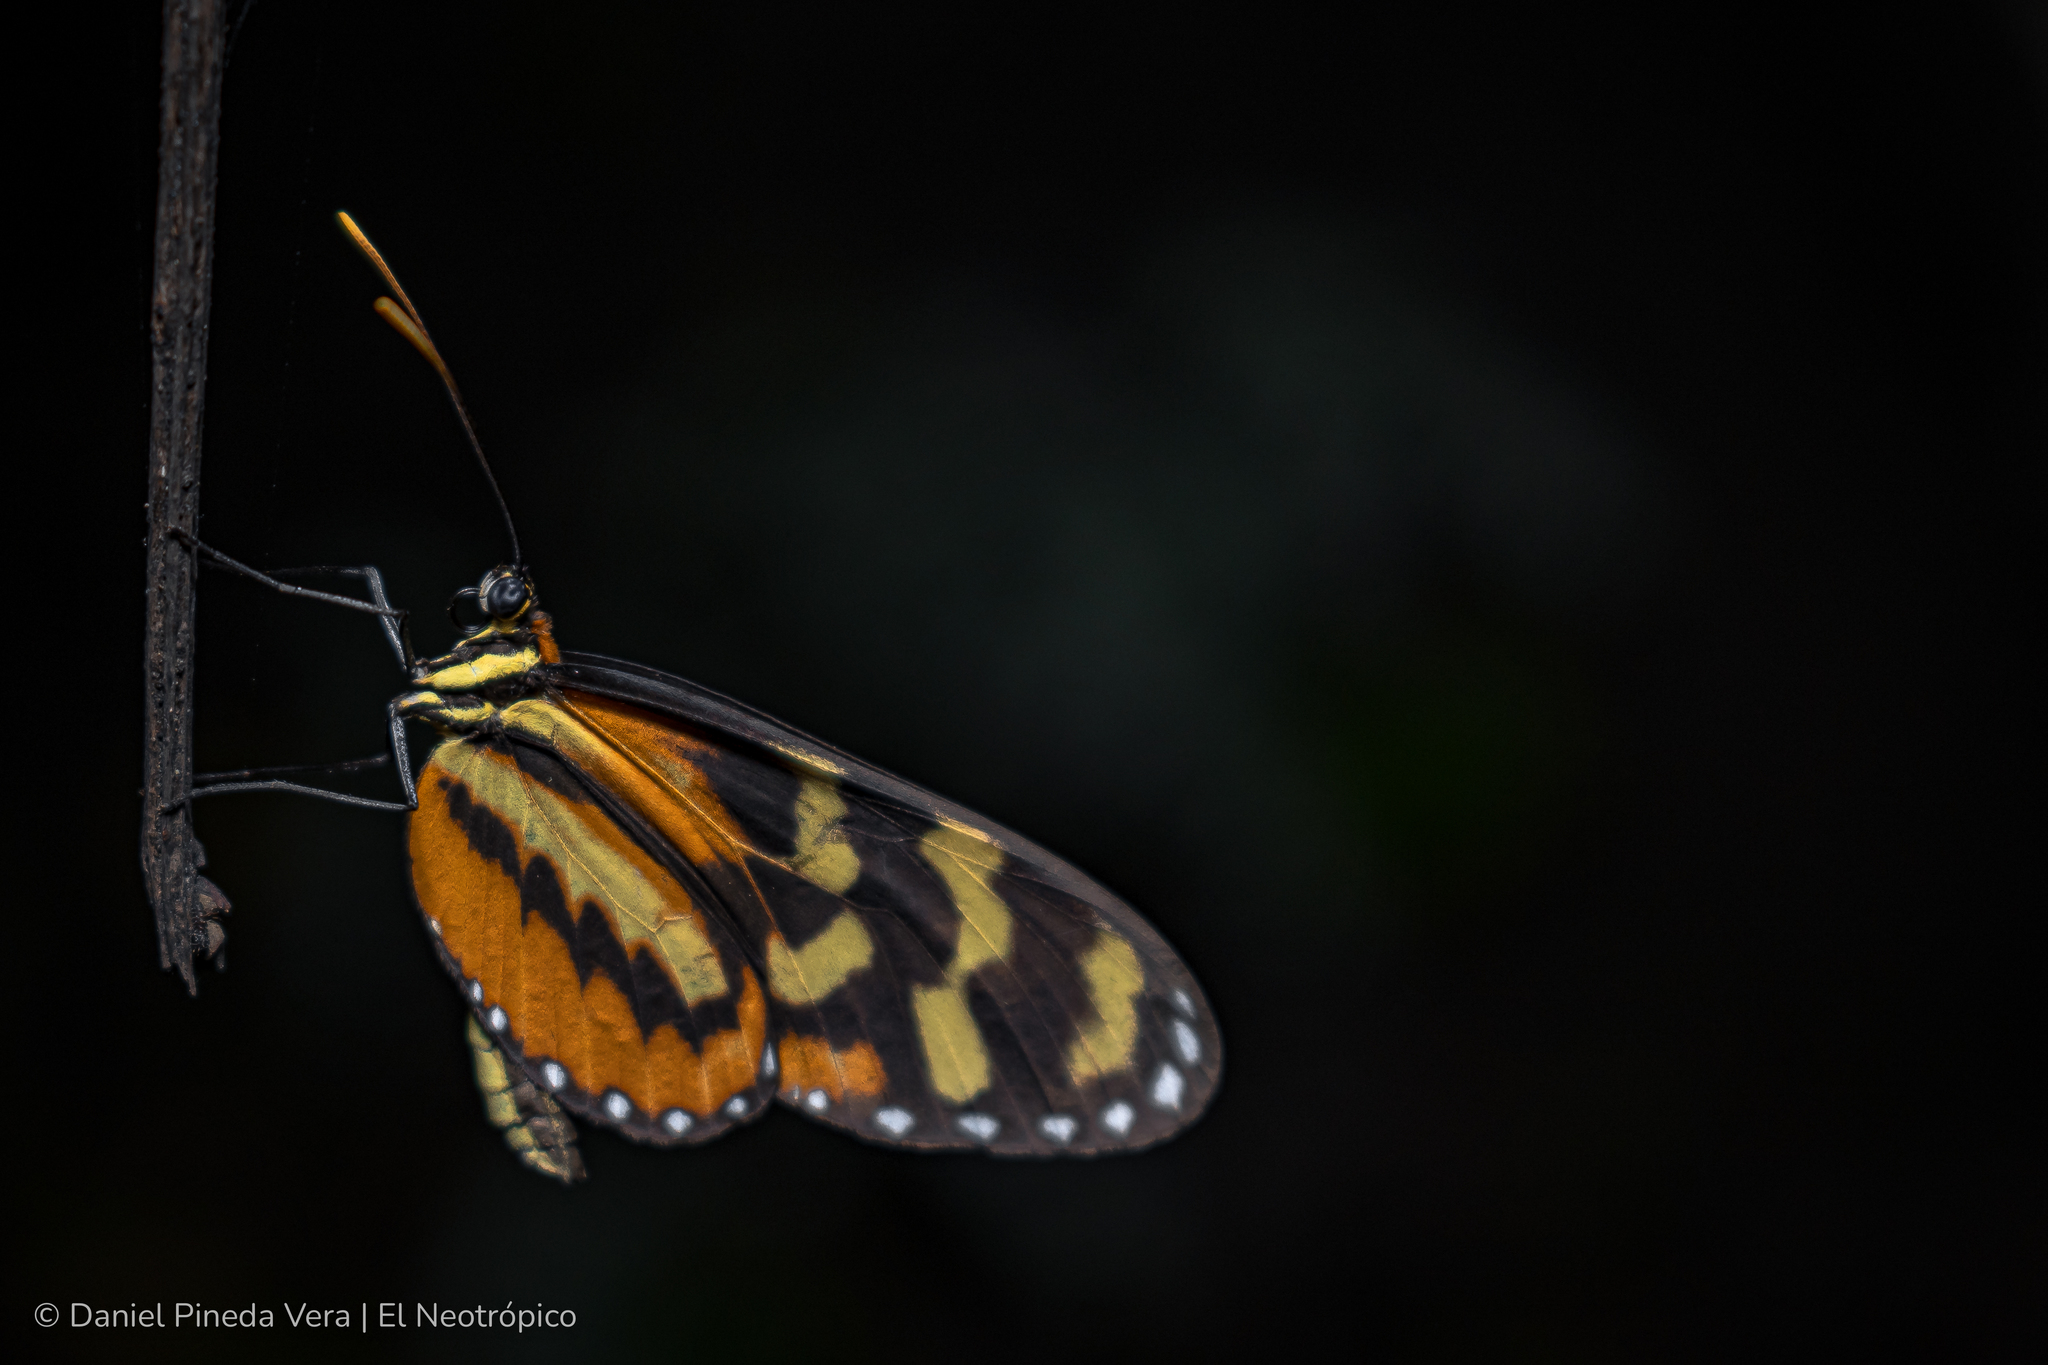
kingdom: Animalia
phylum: Arthropoda
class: Insecta
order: Lepidoptera
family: Nymphalidae
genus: Mechanitis
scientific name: Mechanitis polymnia
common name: Disturbed tigerwing
